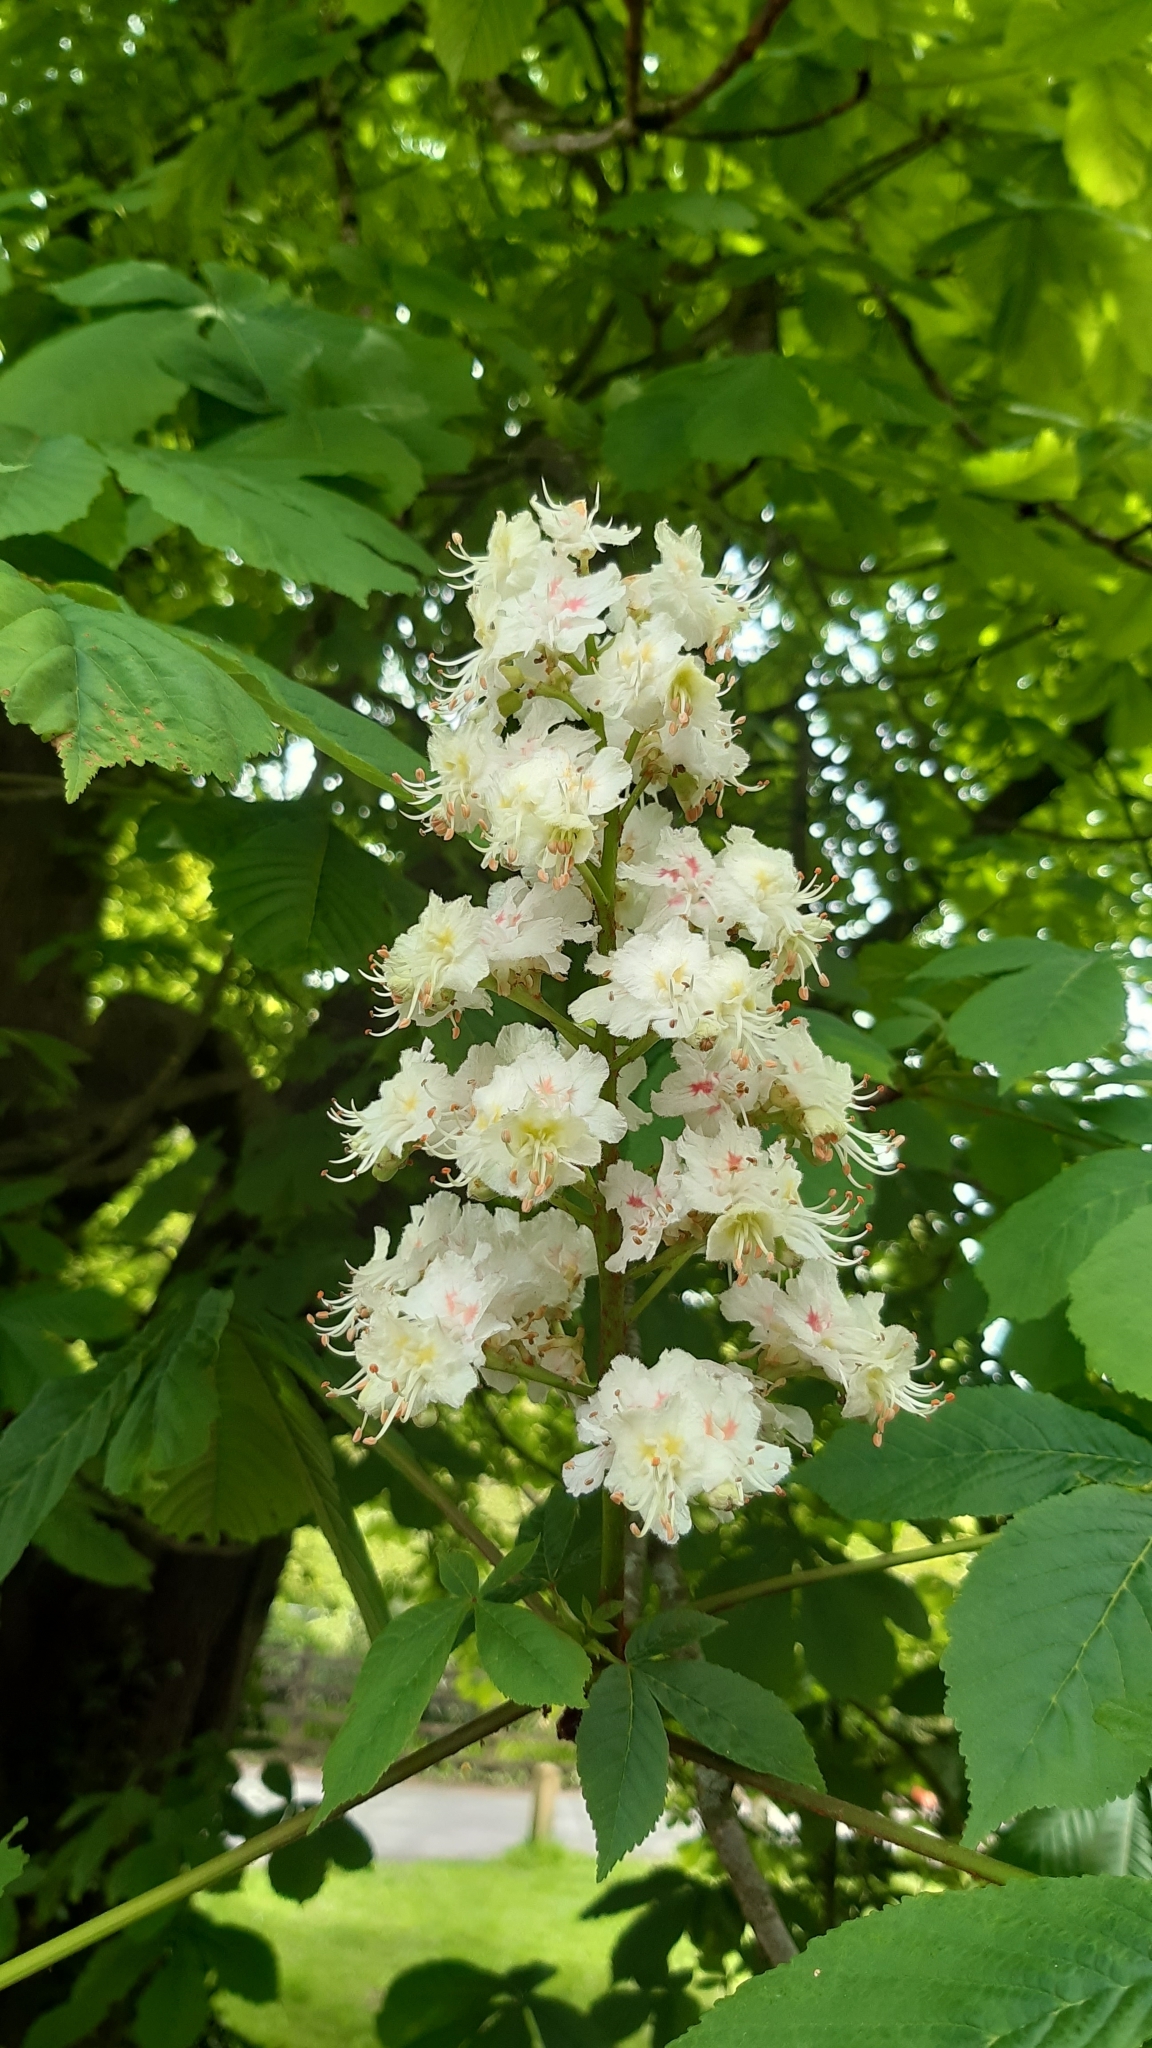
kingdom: Plantae
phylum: Tracheophyta
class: Magnoliopsida
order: Sapindales
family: Sapindaceae
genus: Aesculus
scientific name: Aesculus hippocastanum
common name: Horse-chestnut
